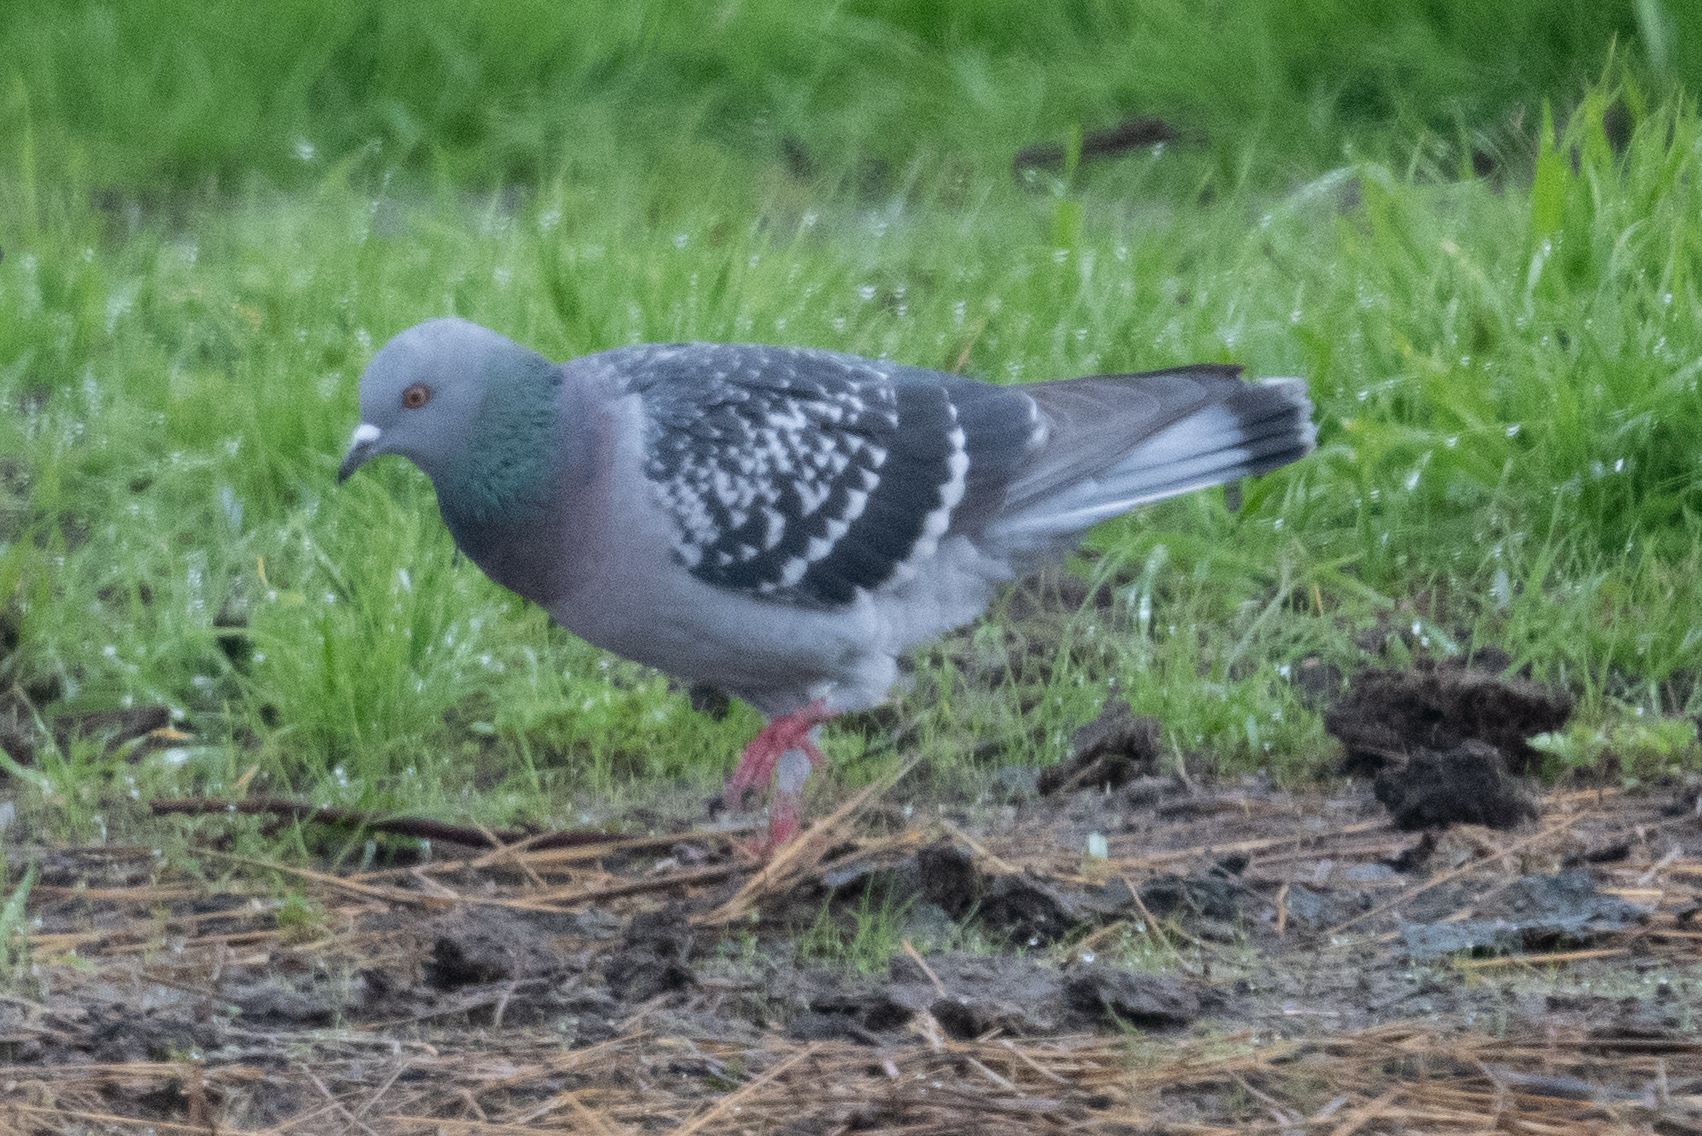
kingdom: Animalia
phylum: Chordata
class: Aves
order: Columbiformes
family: Columbidae
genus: Columba
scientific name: Columba livia
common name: Rock pigeon
